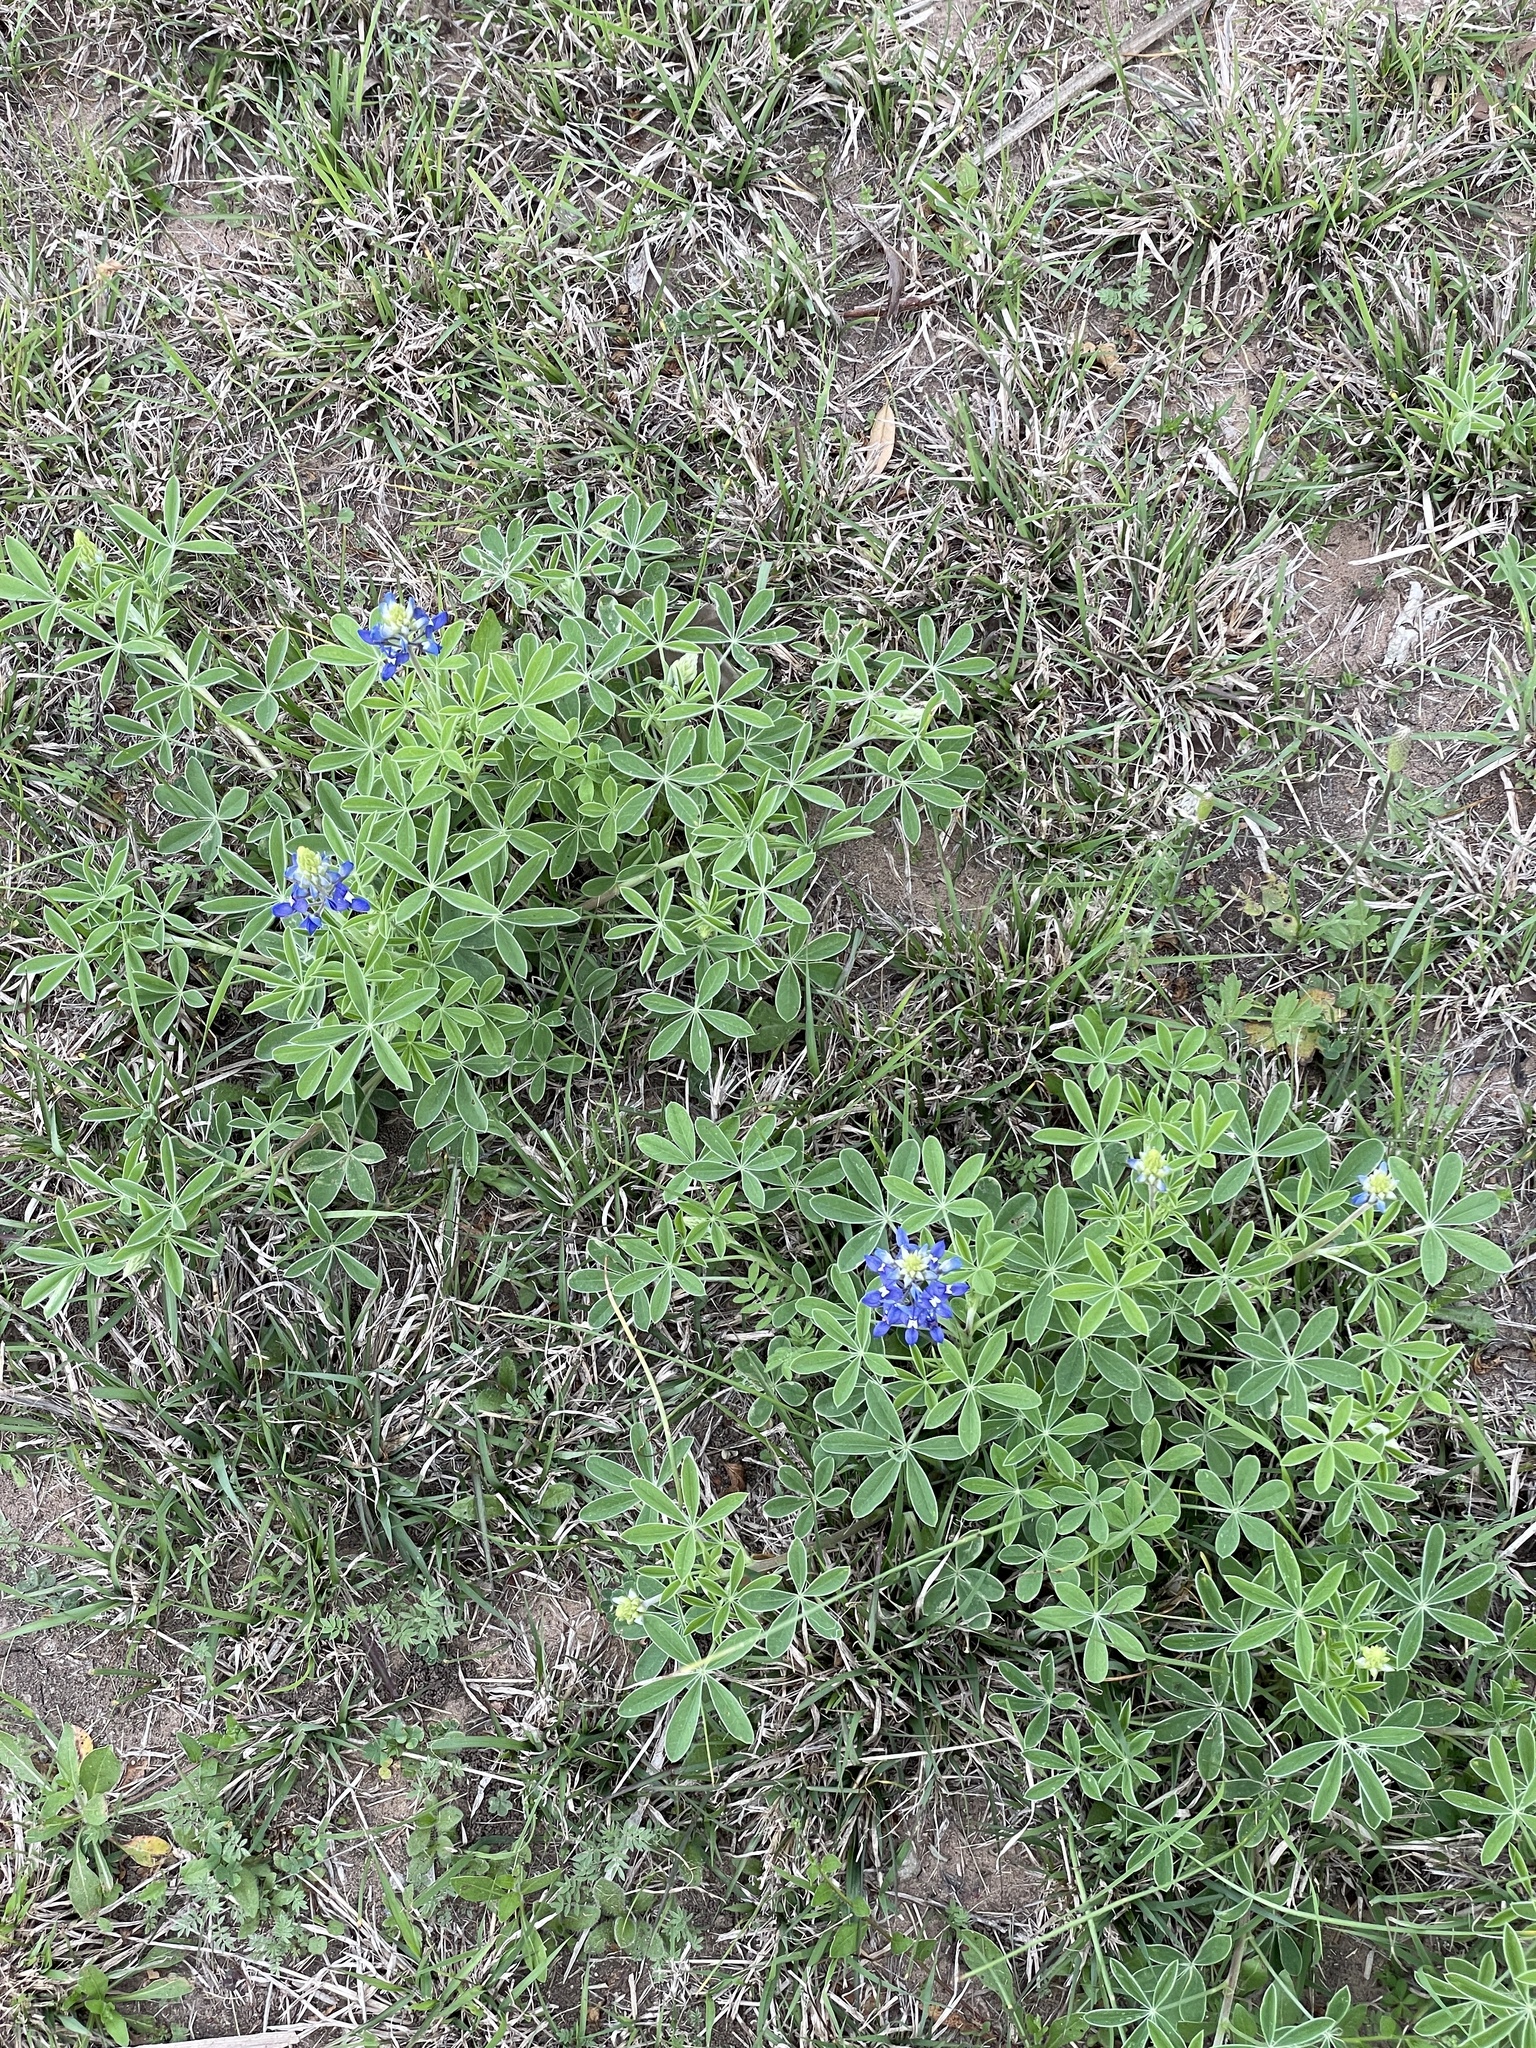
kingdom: Plantae
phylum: Tracheophyta
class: Magnoliopsida
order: Fabales
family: Fabaceae
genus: Lupinus
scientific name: Lupinus texensis
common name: Texas bluebonnet
